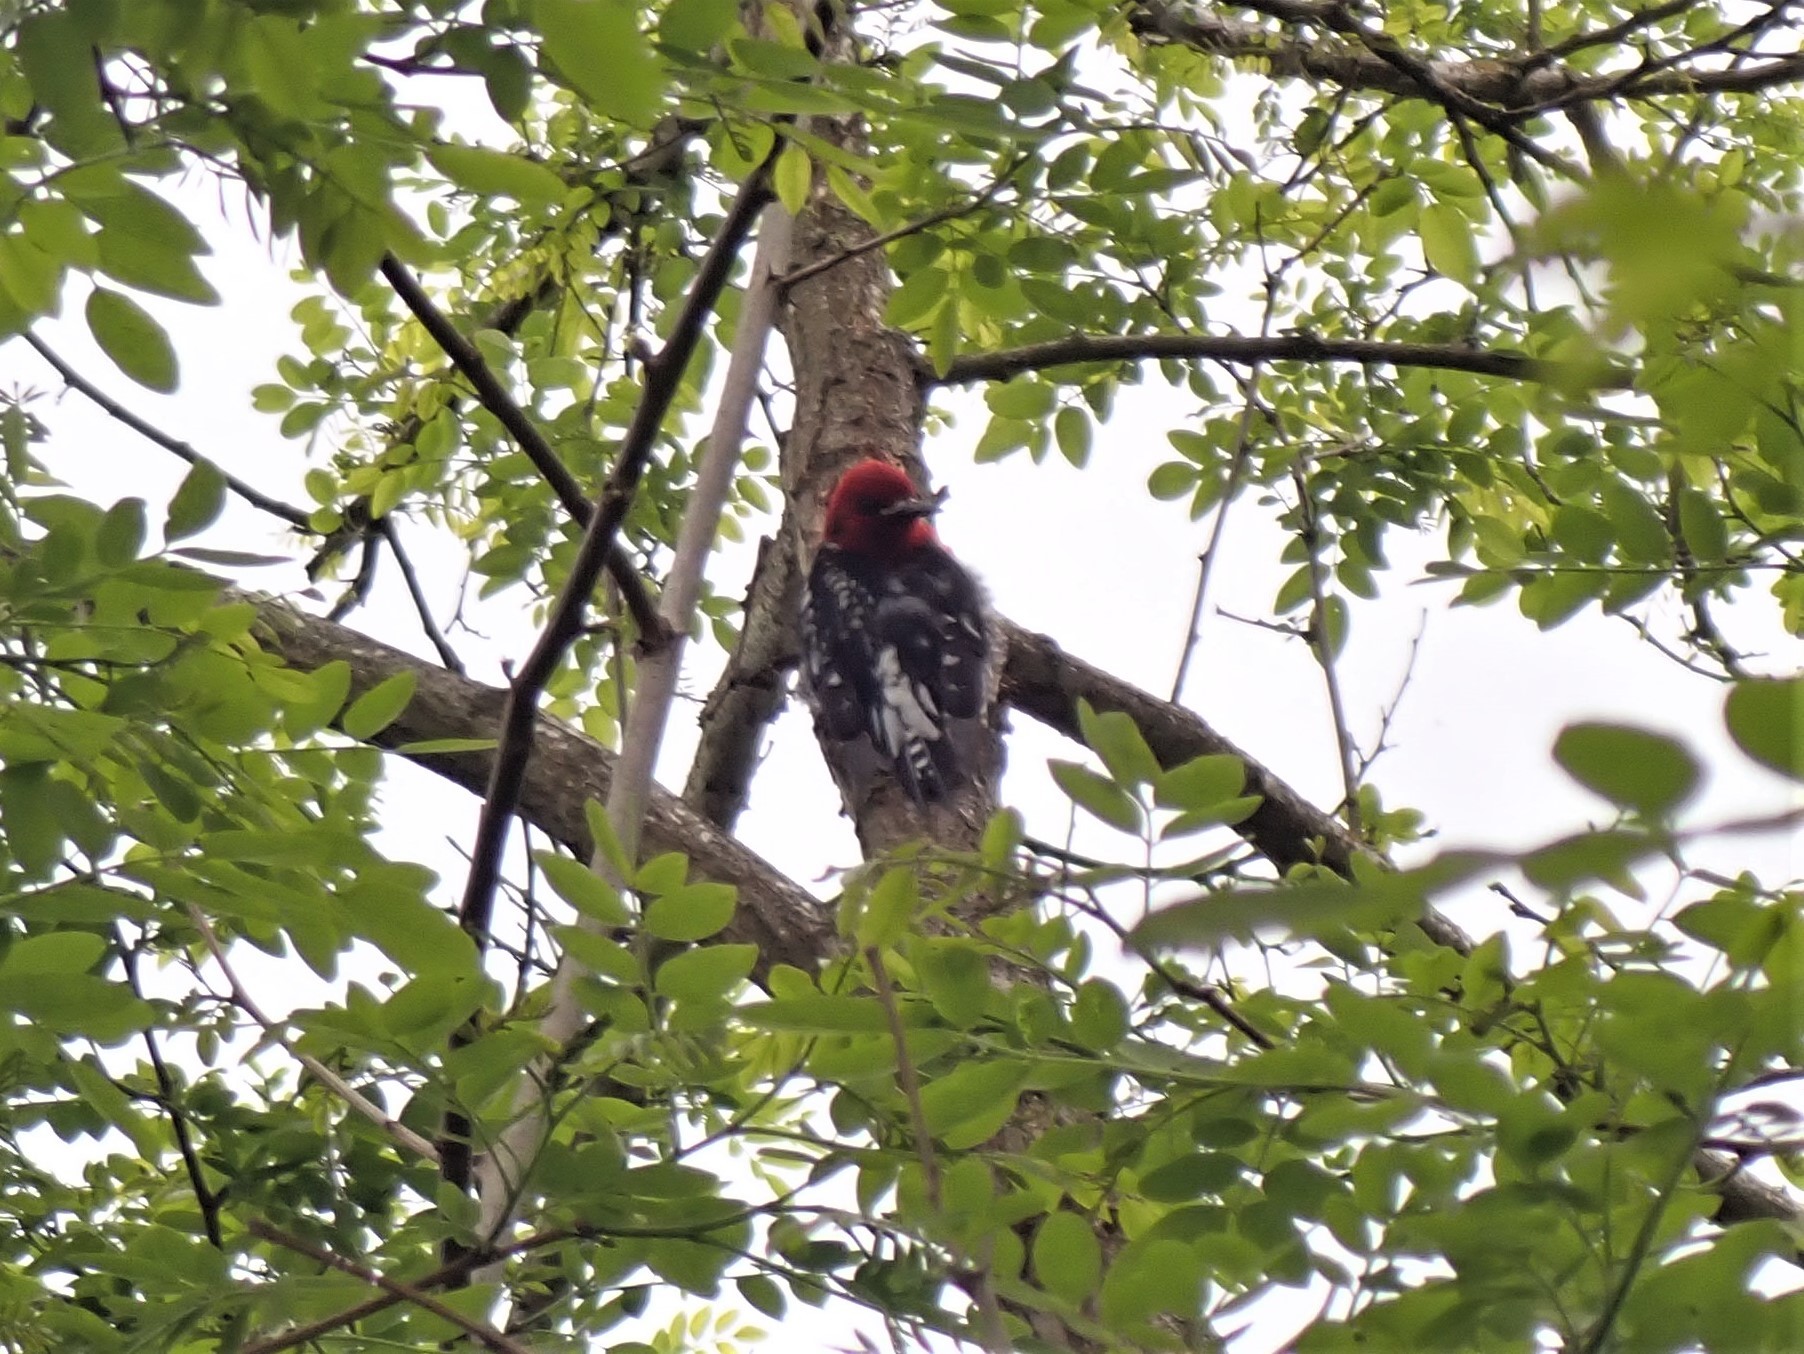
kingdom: Animalia
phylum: Chordata
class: Aves
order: Piciformes
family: Picidae
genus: Sphyrapicus
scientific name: Sphyrapicus ruber
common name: Red-breasted sapsucker
